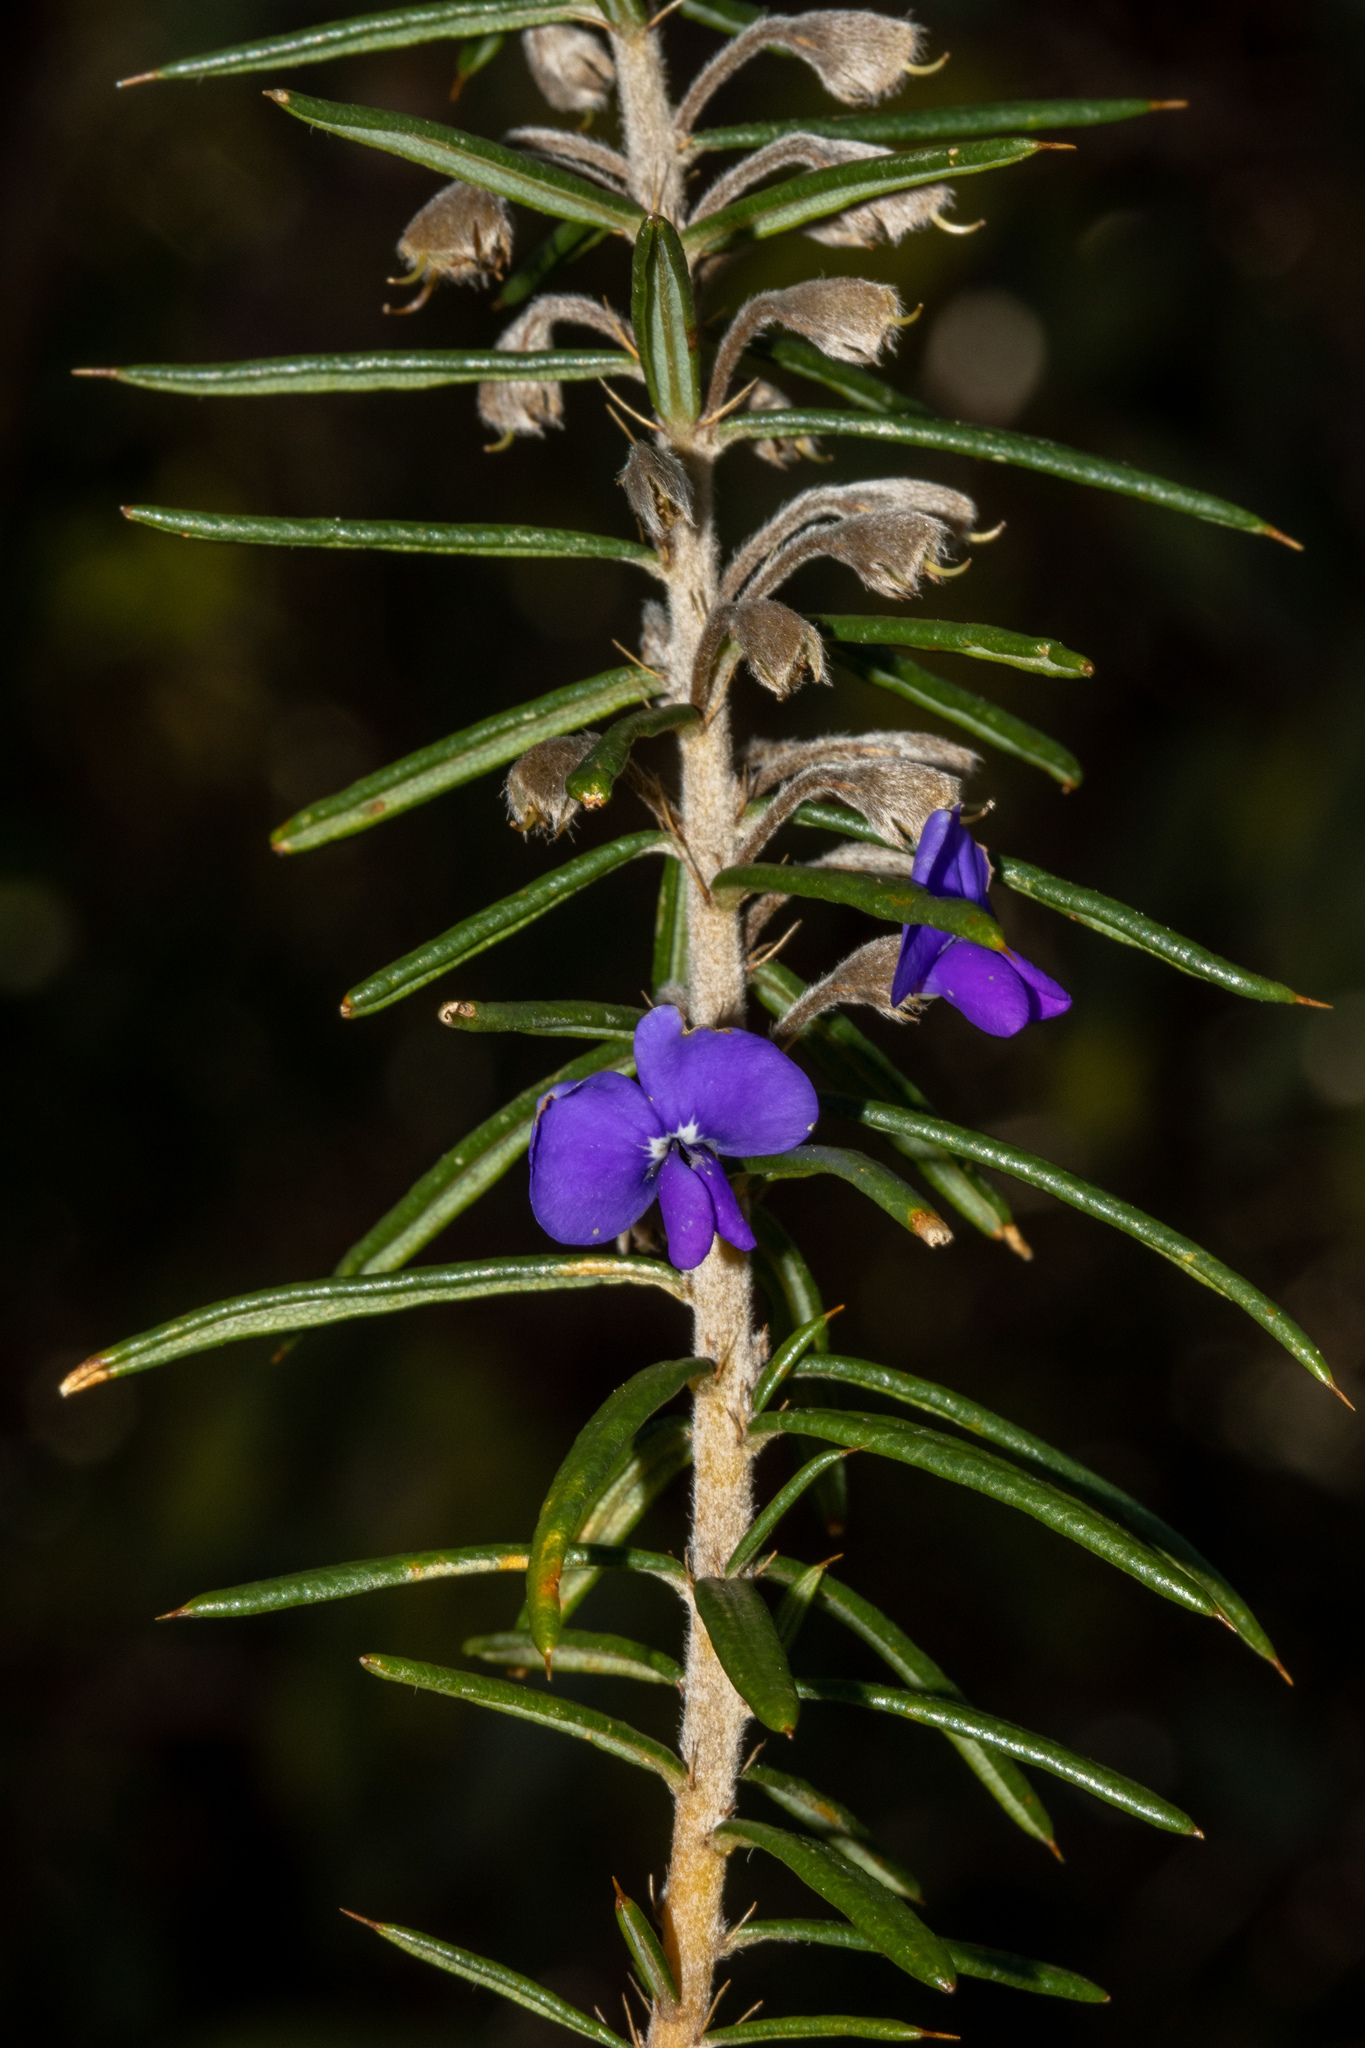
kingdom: Plantae
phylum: Tracheophyta
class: Magnoliopsida
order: Fabales
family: Fabaceae
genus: Hovea
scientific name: Hovea pungens
